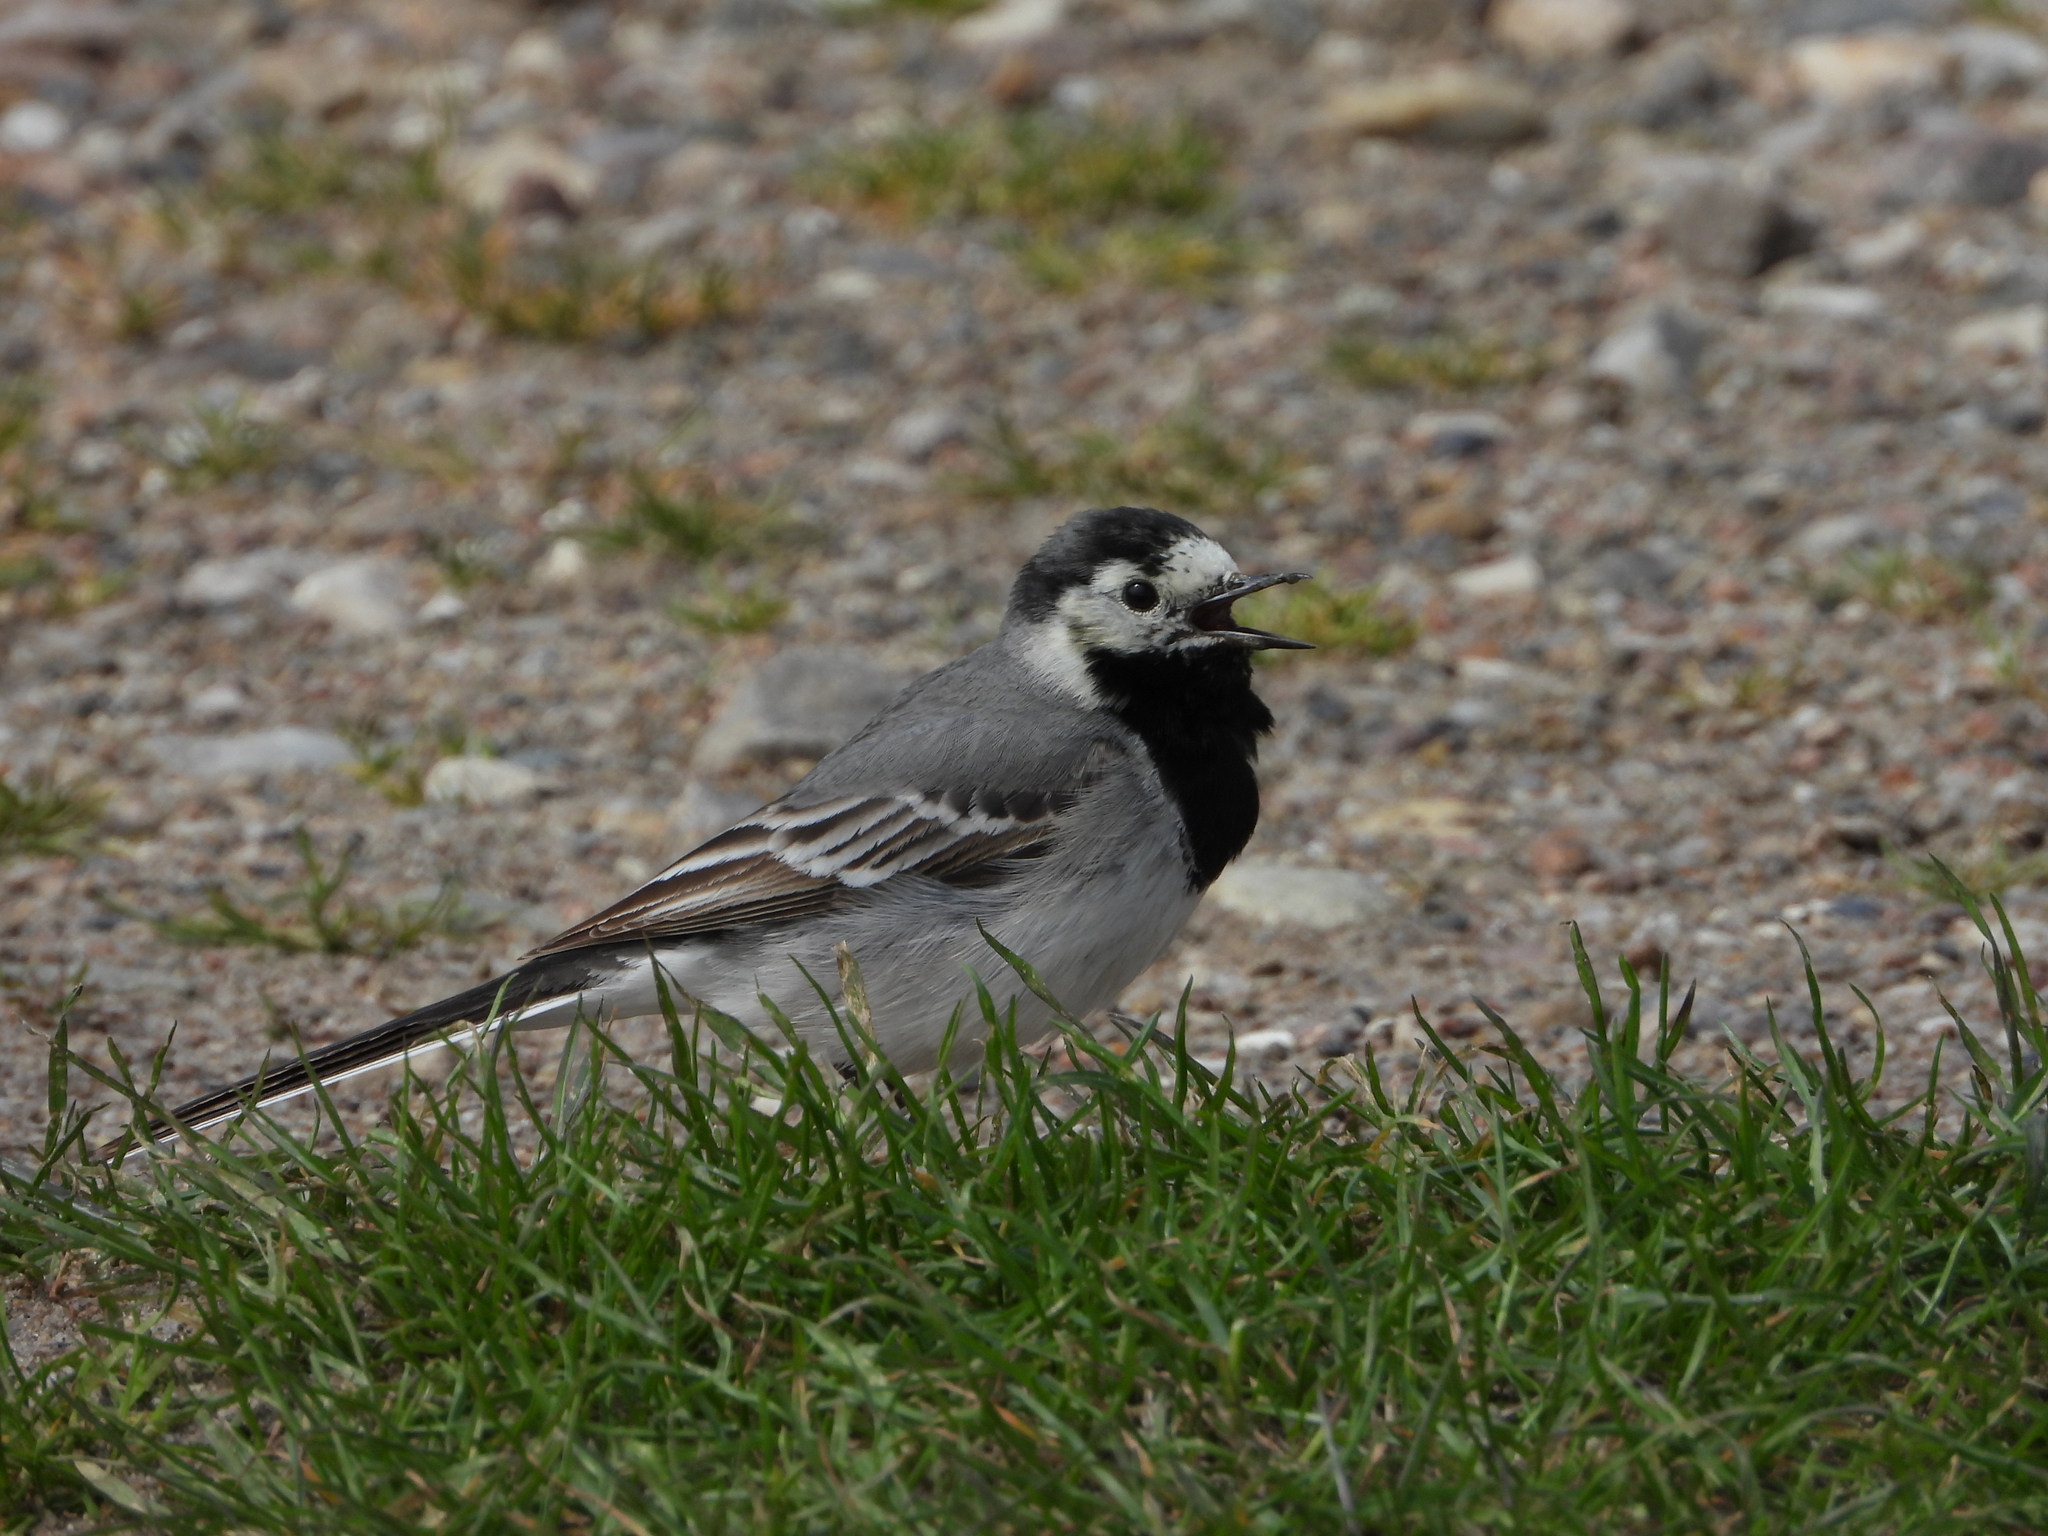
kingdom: Animalia
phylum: Chordata
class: Aves
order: Passeriformes
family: Motacillidae
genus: Motacilla
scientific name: Motacilla alba
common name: White wagtail
